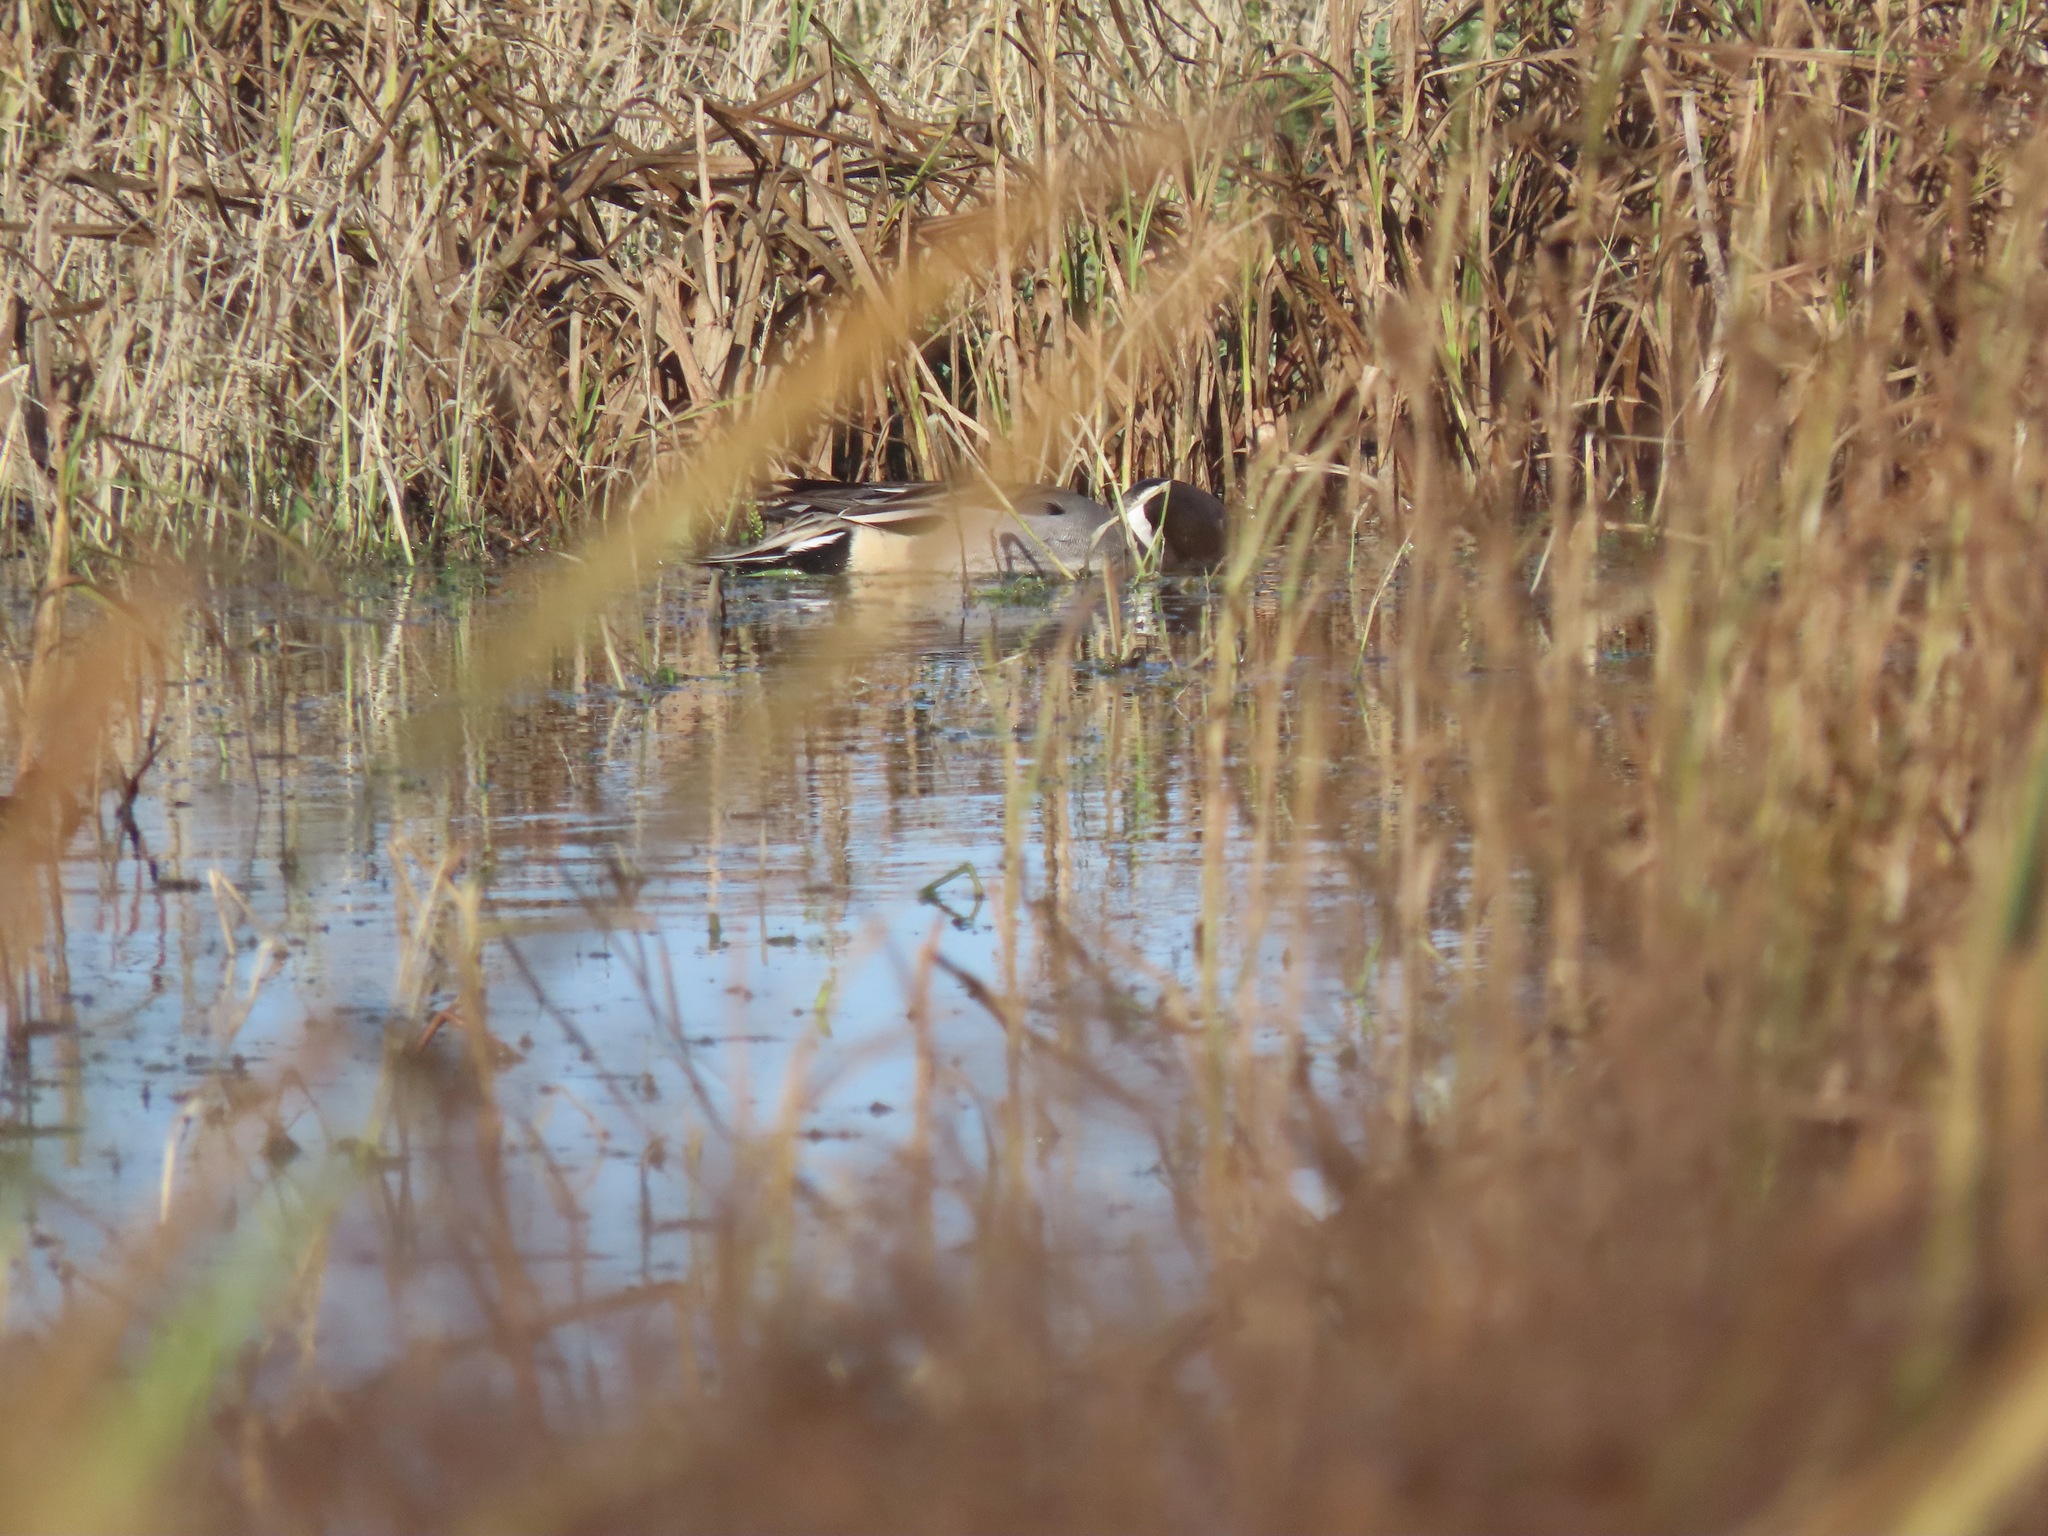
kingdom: Animalia
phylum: Chordata
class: Aves
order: Anseriformes
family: Anatidae
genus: Anas
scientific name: Anas acuta
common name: Northern pintail
